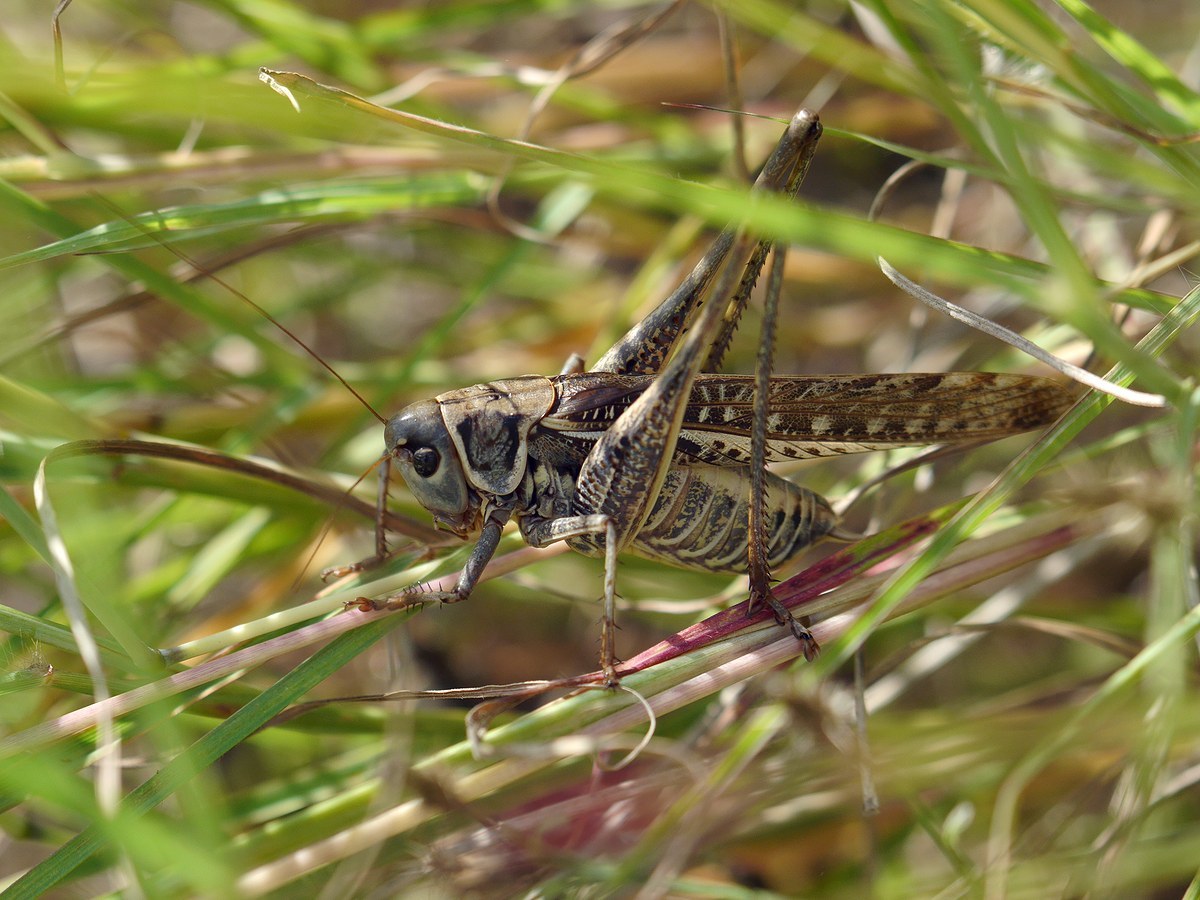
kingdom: Animalia
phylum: Arthropoda
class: Insecta
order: Orthoptera
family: Tettigoniidae
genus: Decticus
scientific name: Decticus albifrons
